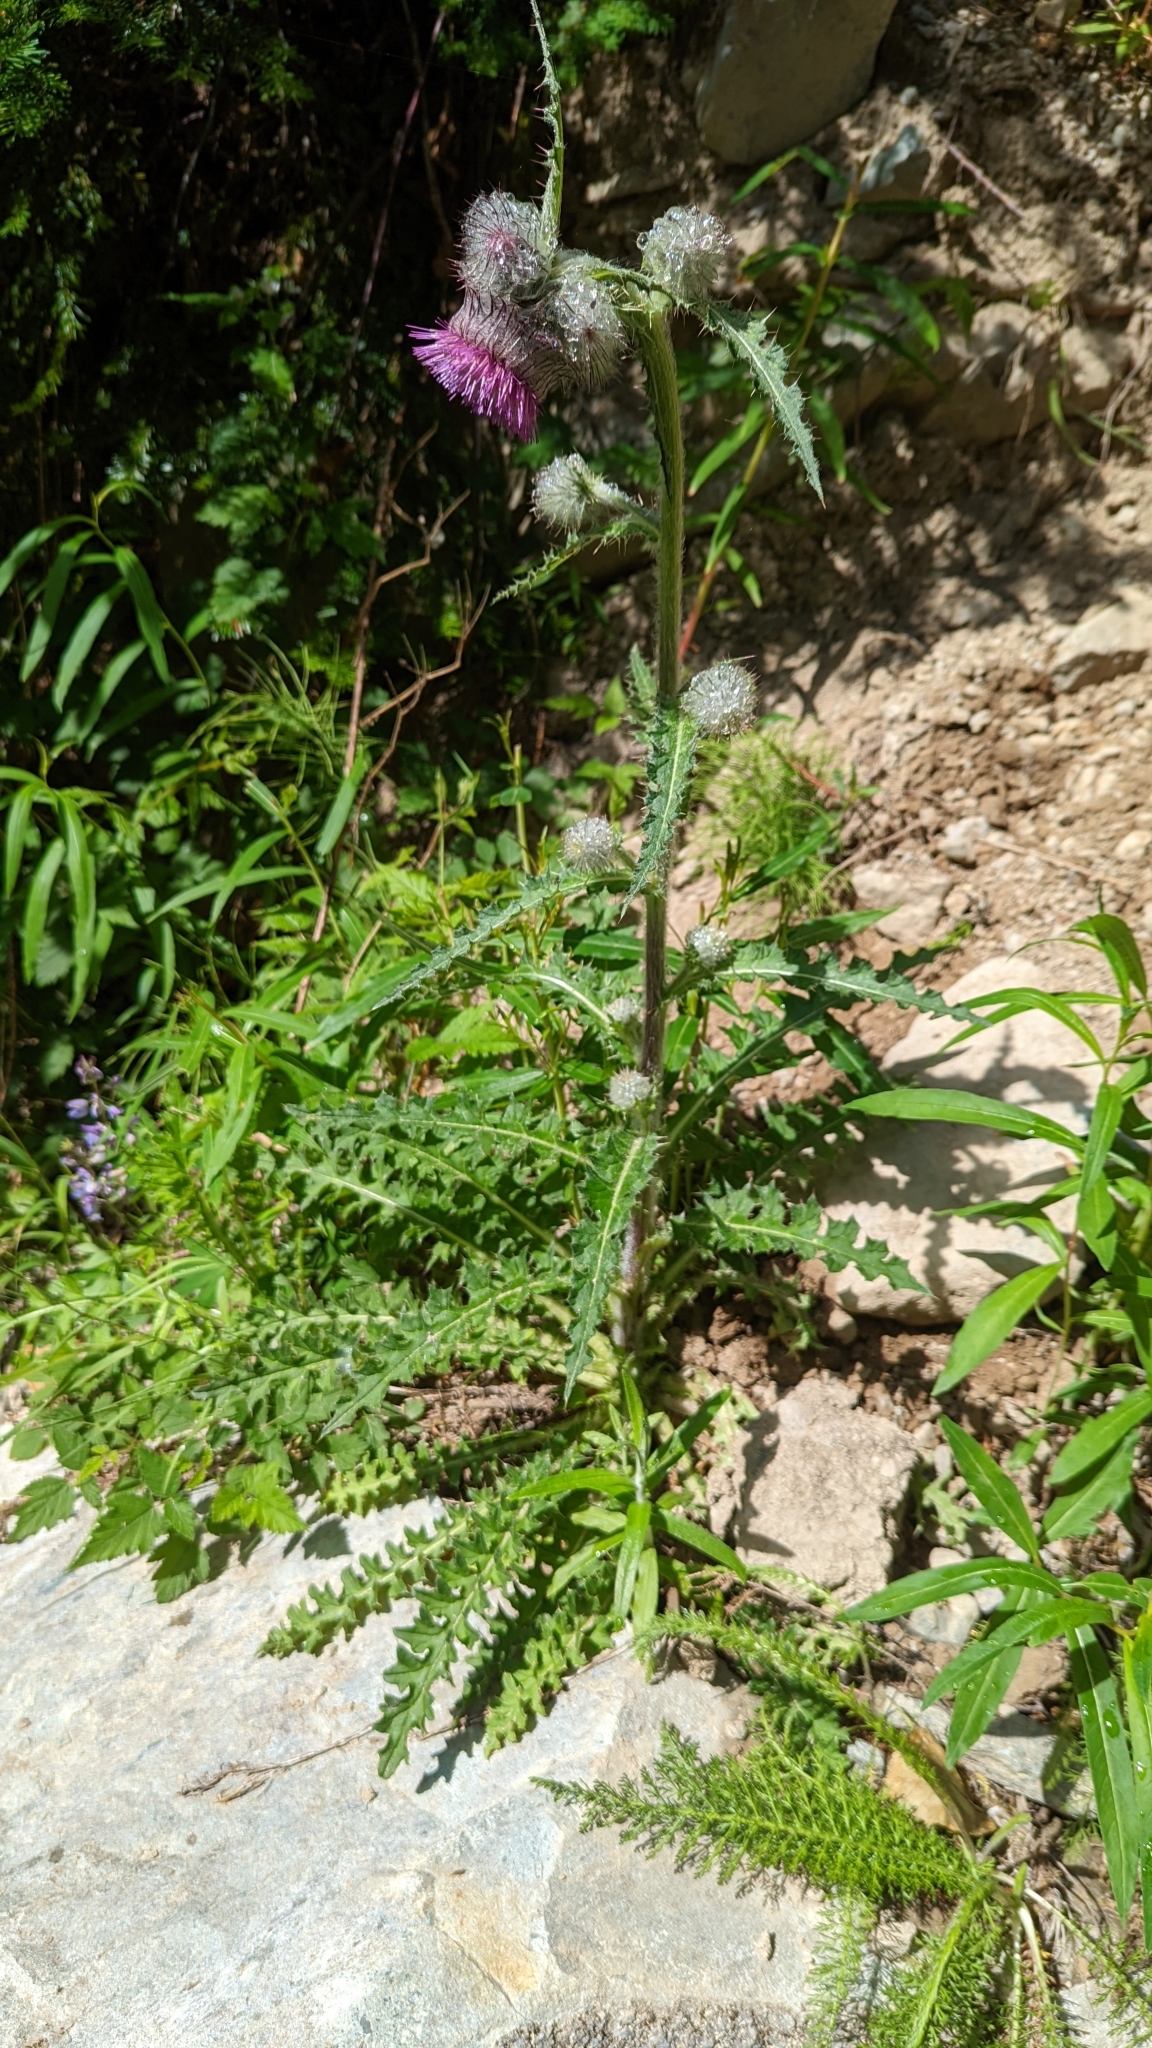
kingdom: Plantae
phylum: Tracheophyta
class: Magnoliopsida
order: Asterales
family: Asteraceae
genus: Cirsium
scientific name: Cirsium edule
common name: Indian thistle
